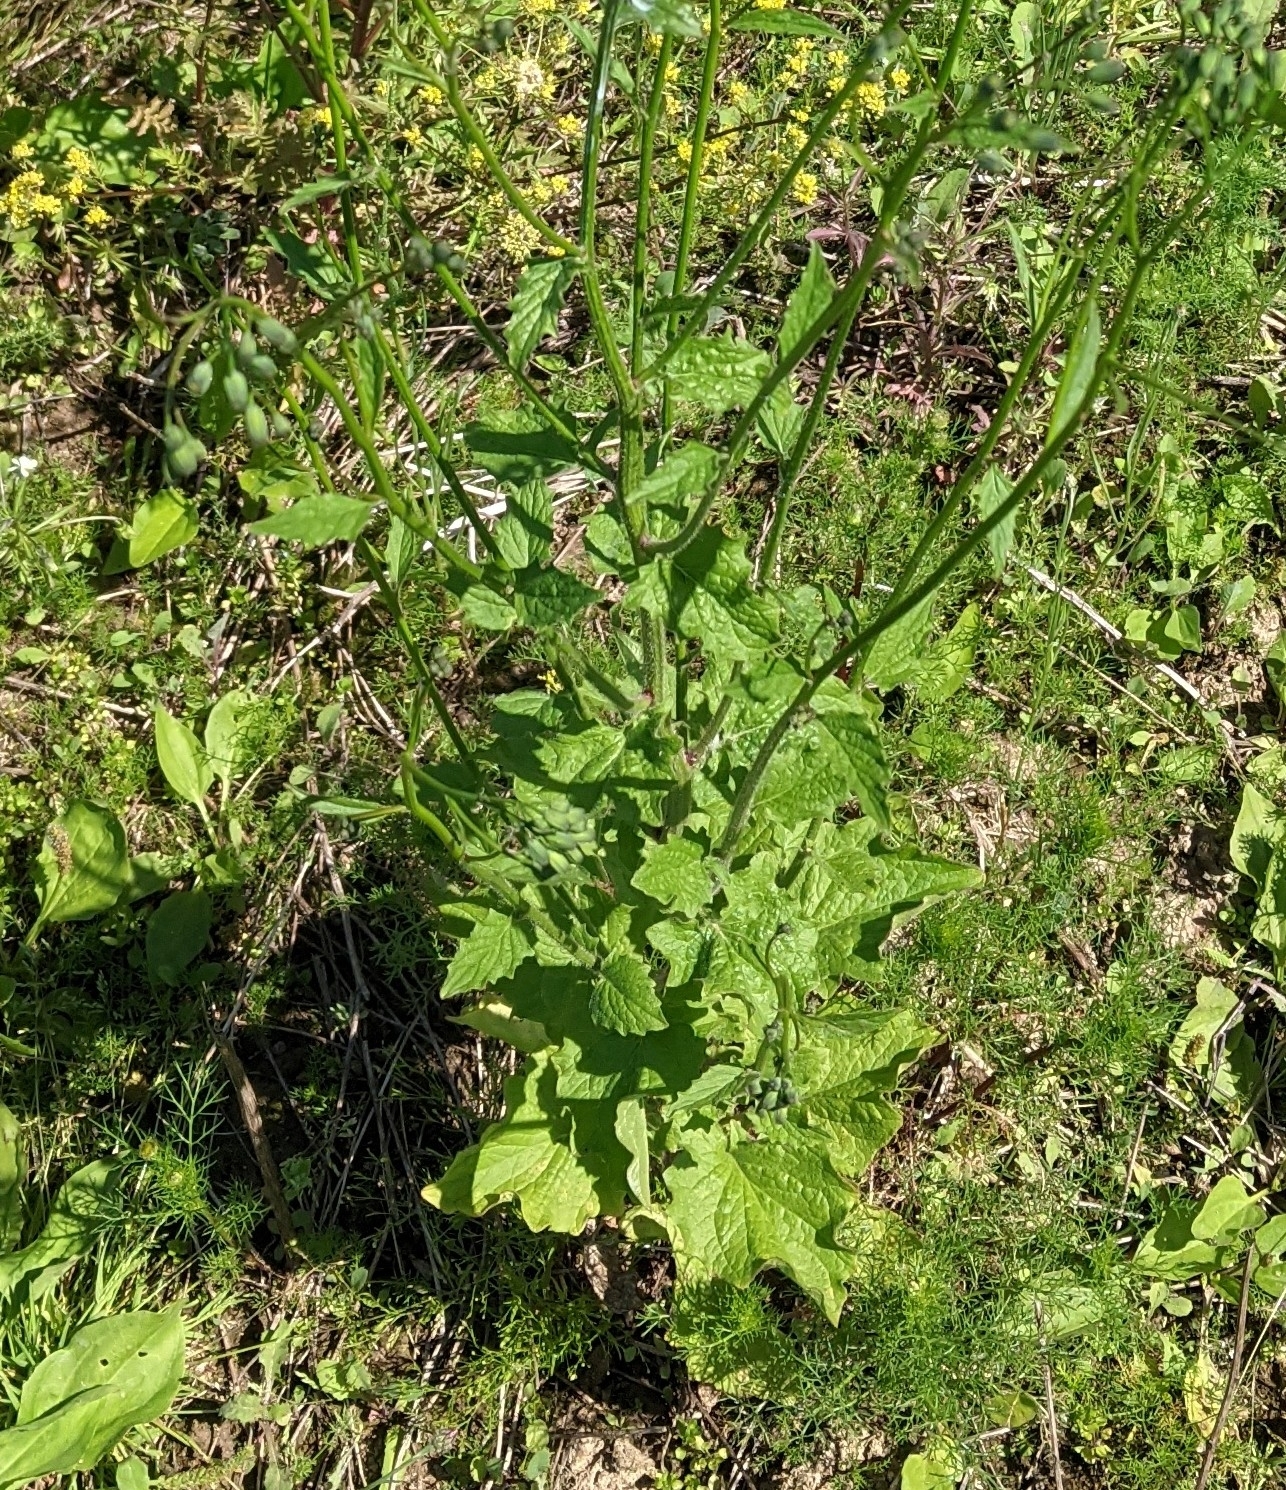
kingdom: Plantae
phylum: Tracheophyta
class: Magnoliopsida
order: Asterales
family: Asteraceae
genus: Lapsana
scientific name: Lapsana communis
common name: Nipplewort
